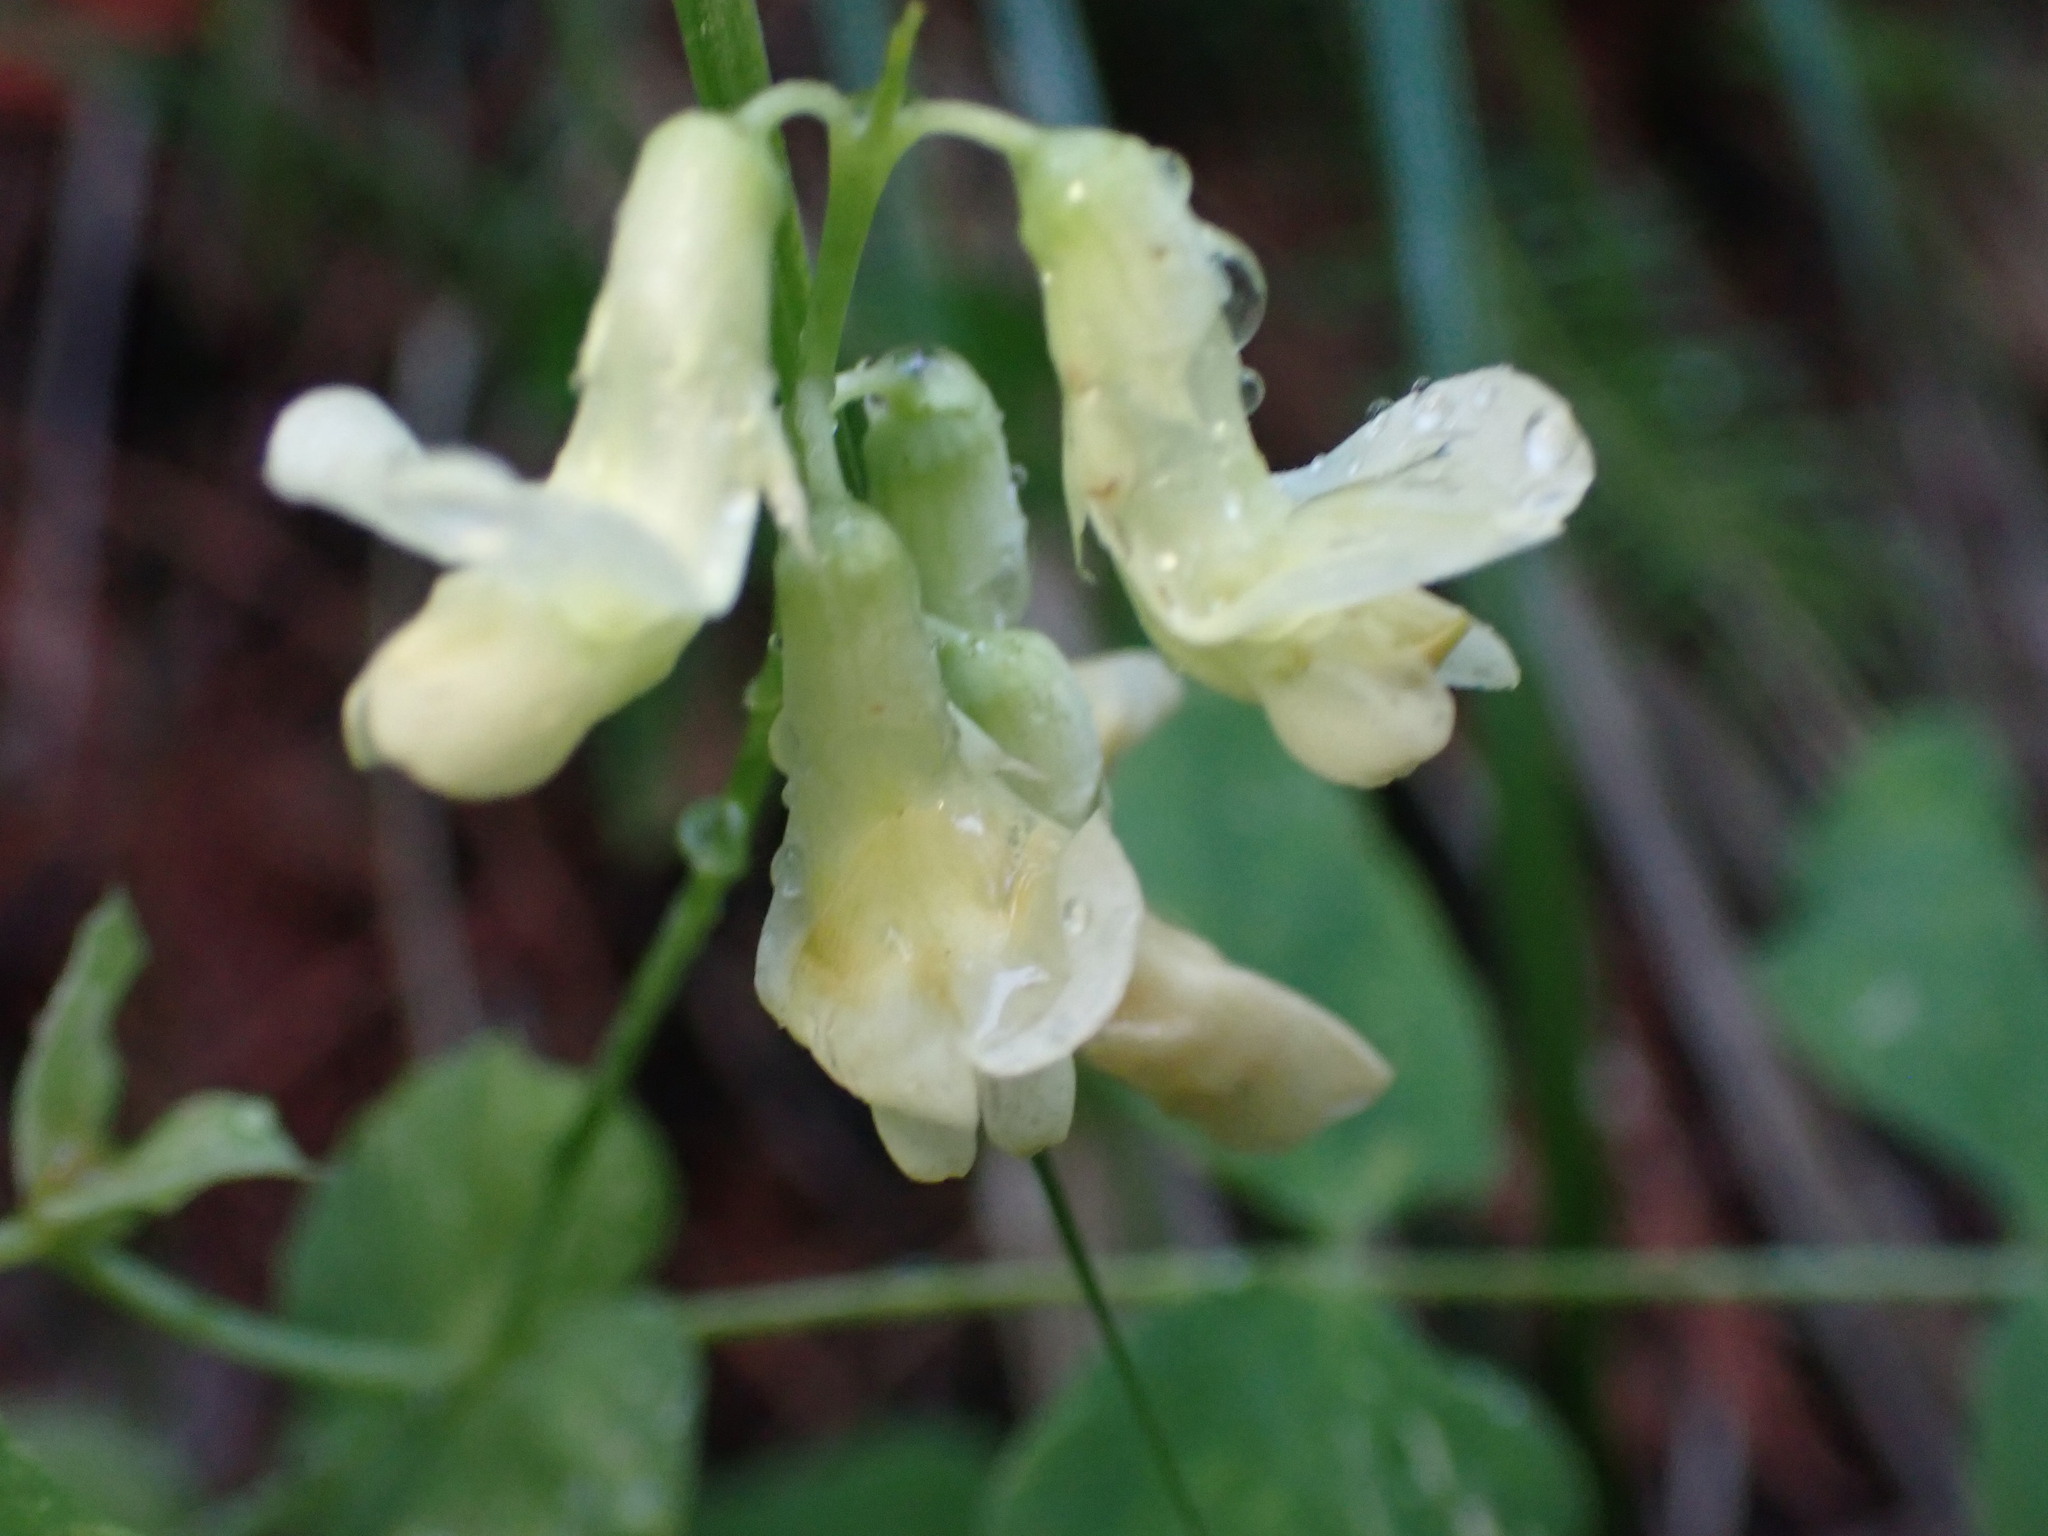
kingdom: Plantae
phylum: Tracheophyta
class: Magnoliopsida
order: Fabales
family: Fabaceae
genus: Lathyrus
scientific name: Lathyrus ochroleucus
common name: Pale vetchling
